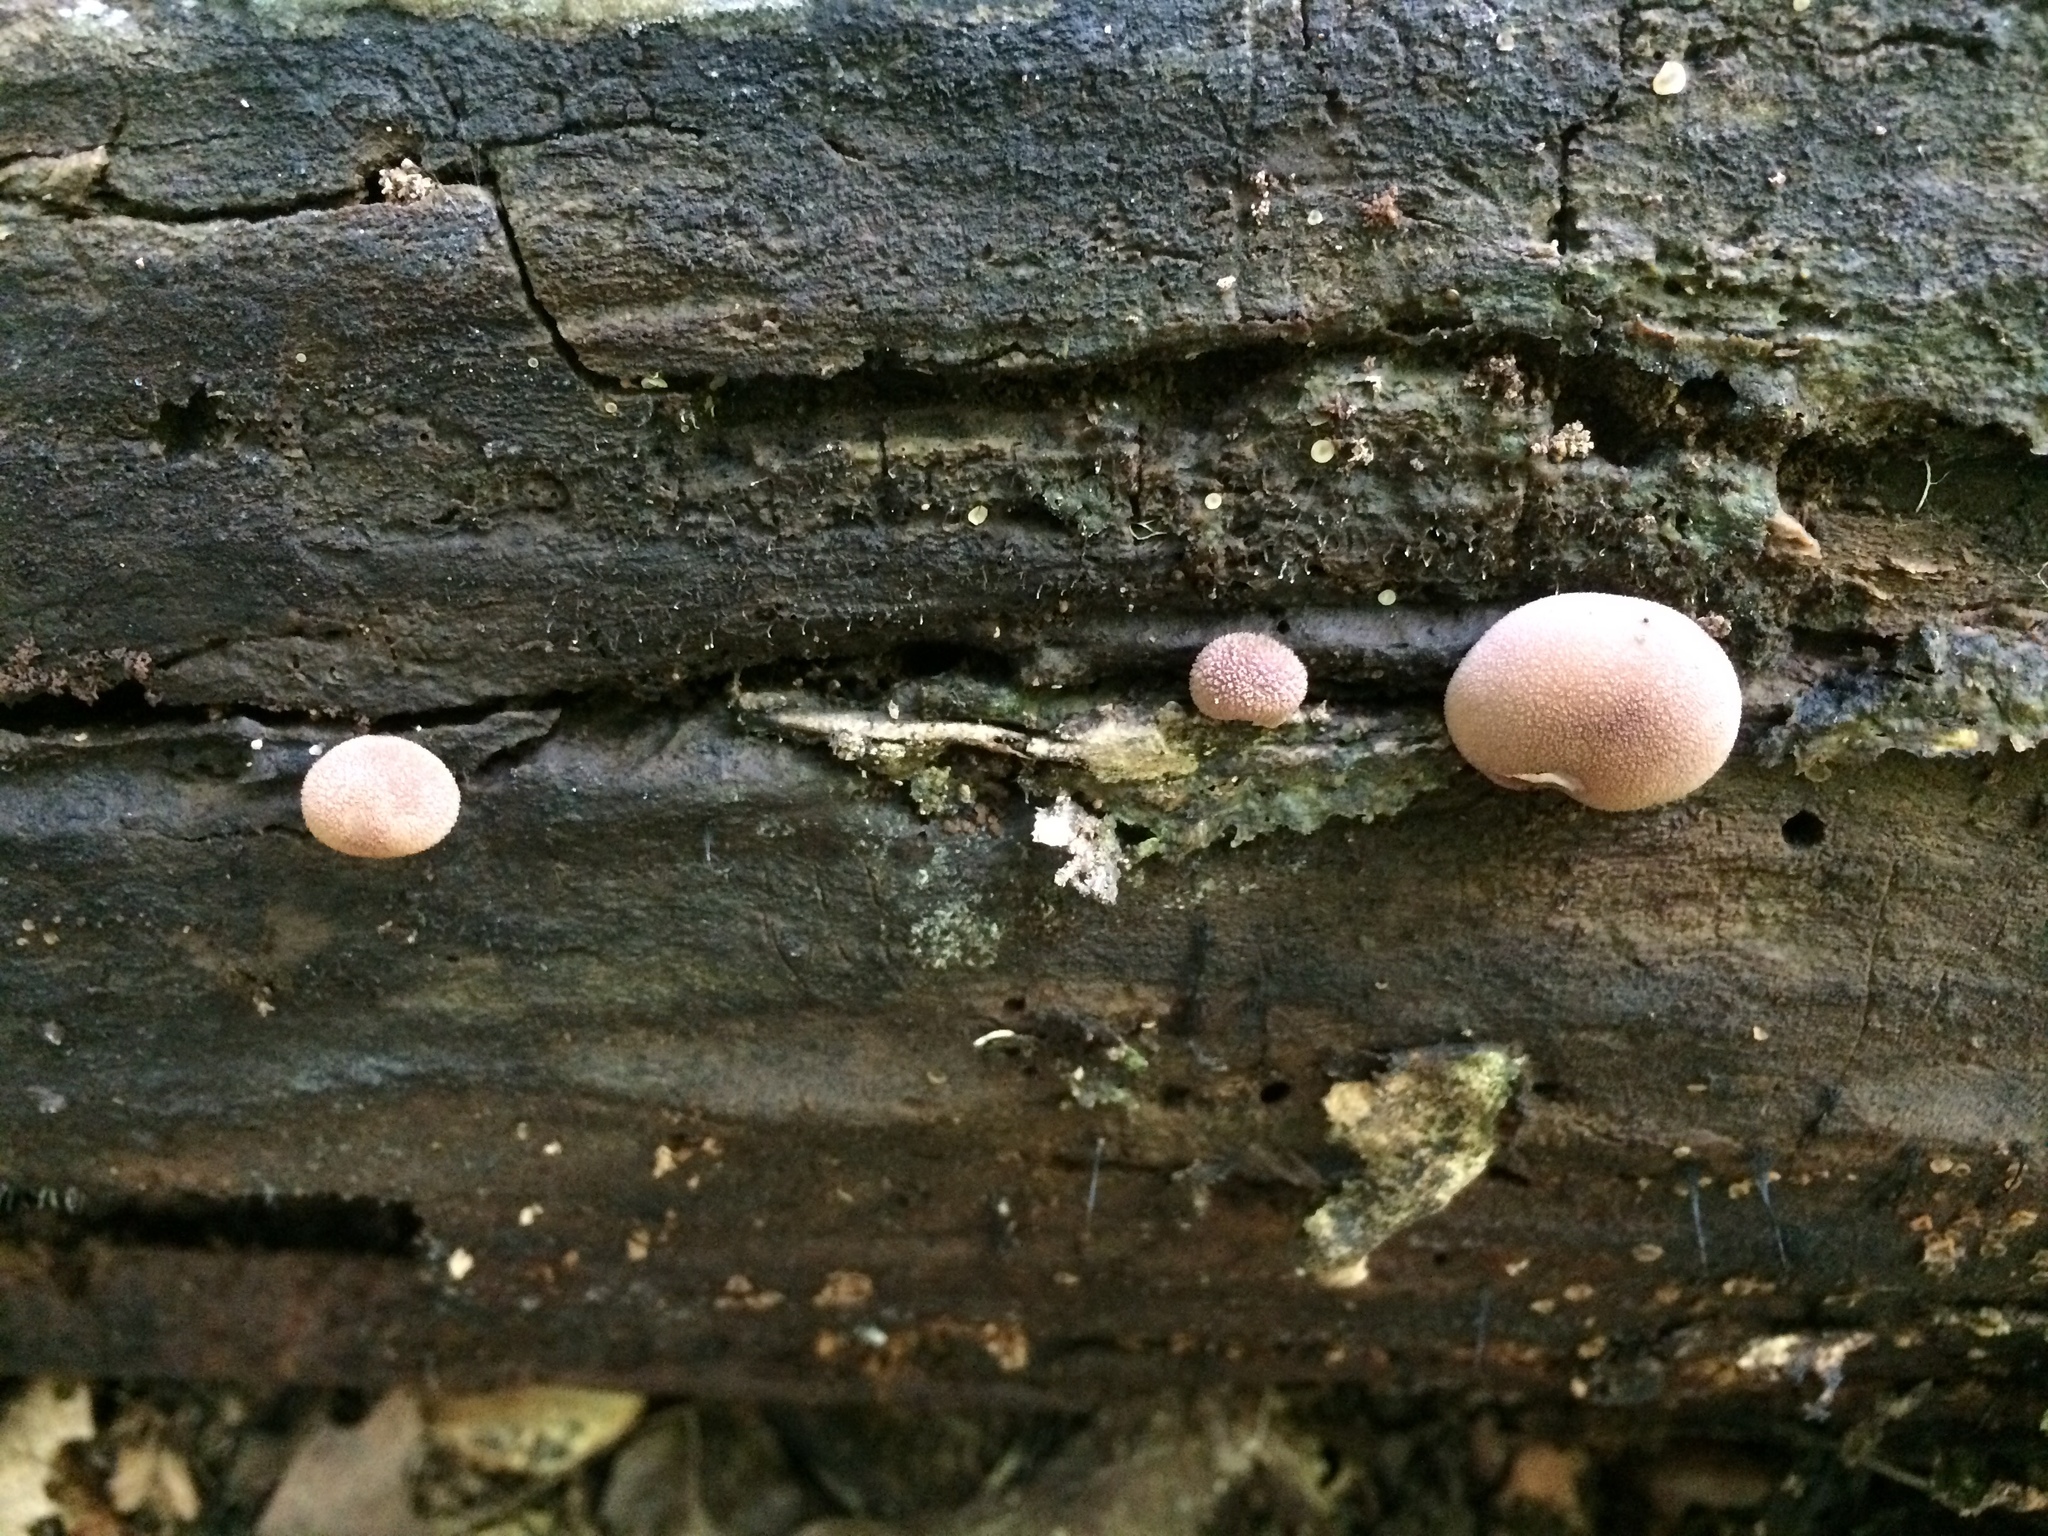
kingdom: Fungi
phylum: Basidiomycota
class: Agaricomycetes
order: Agaricales
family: Lycoperdaceae
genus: Apioperdon
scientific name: Apioperdon pyriforme
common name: Pear-shaped puffball
